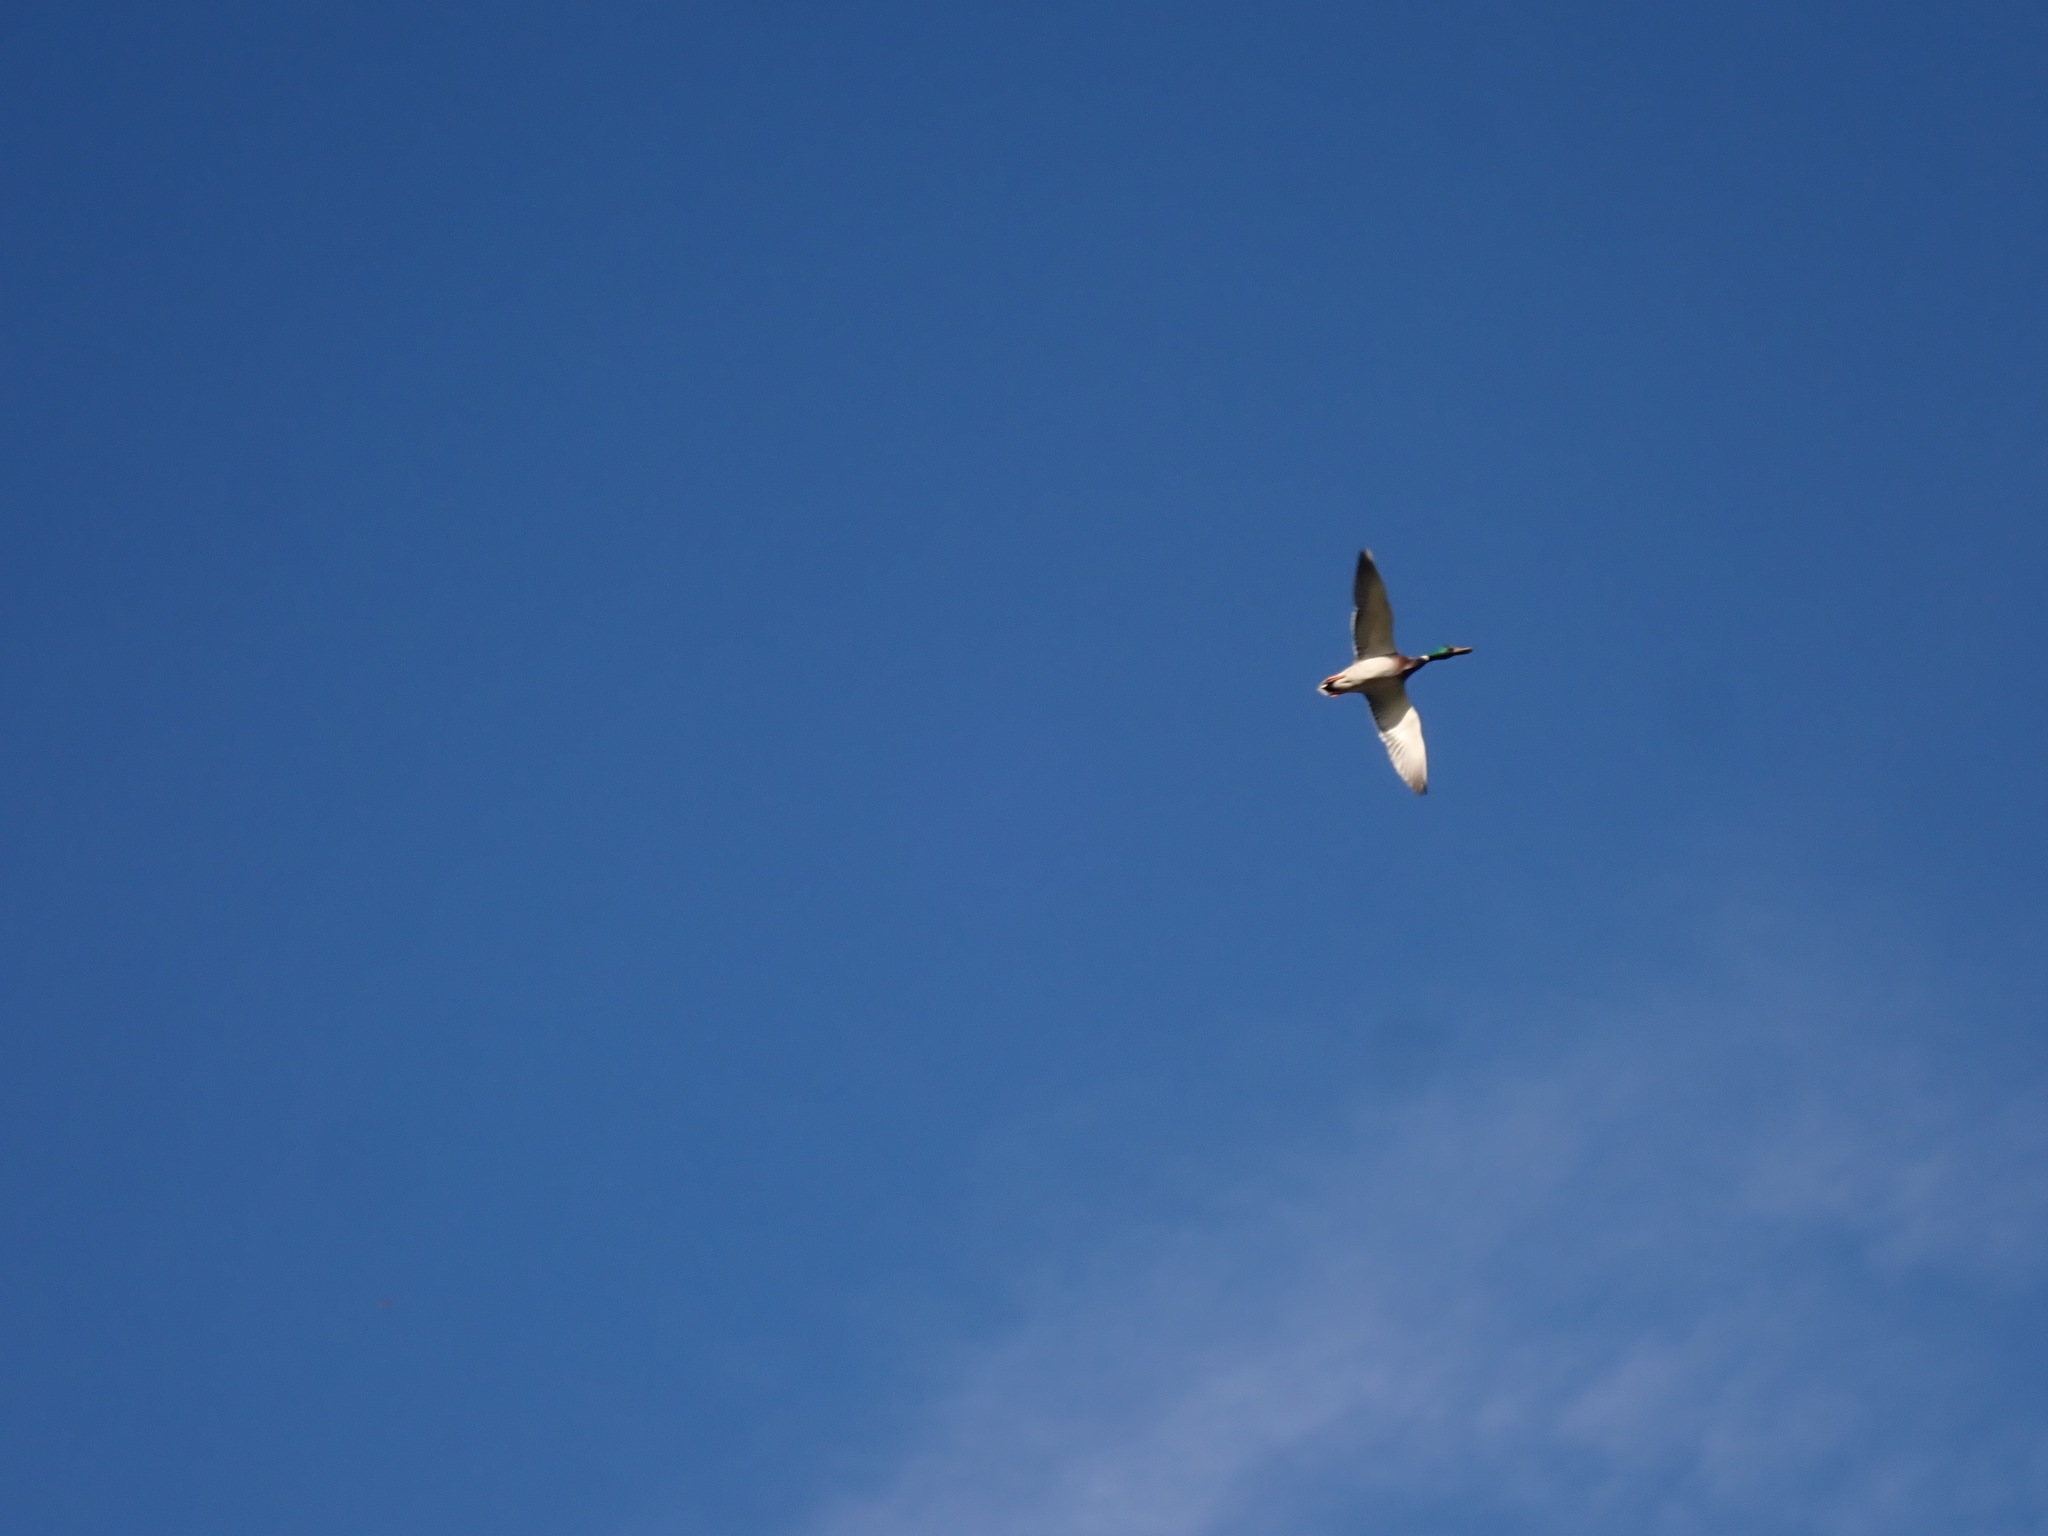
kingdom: Animalia
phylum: Chordata
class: Aves
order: Anseriformes
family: Anatidae
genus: Anas
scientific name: Anas platyrhynchos
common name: Mallard
